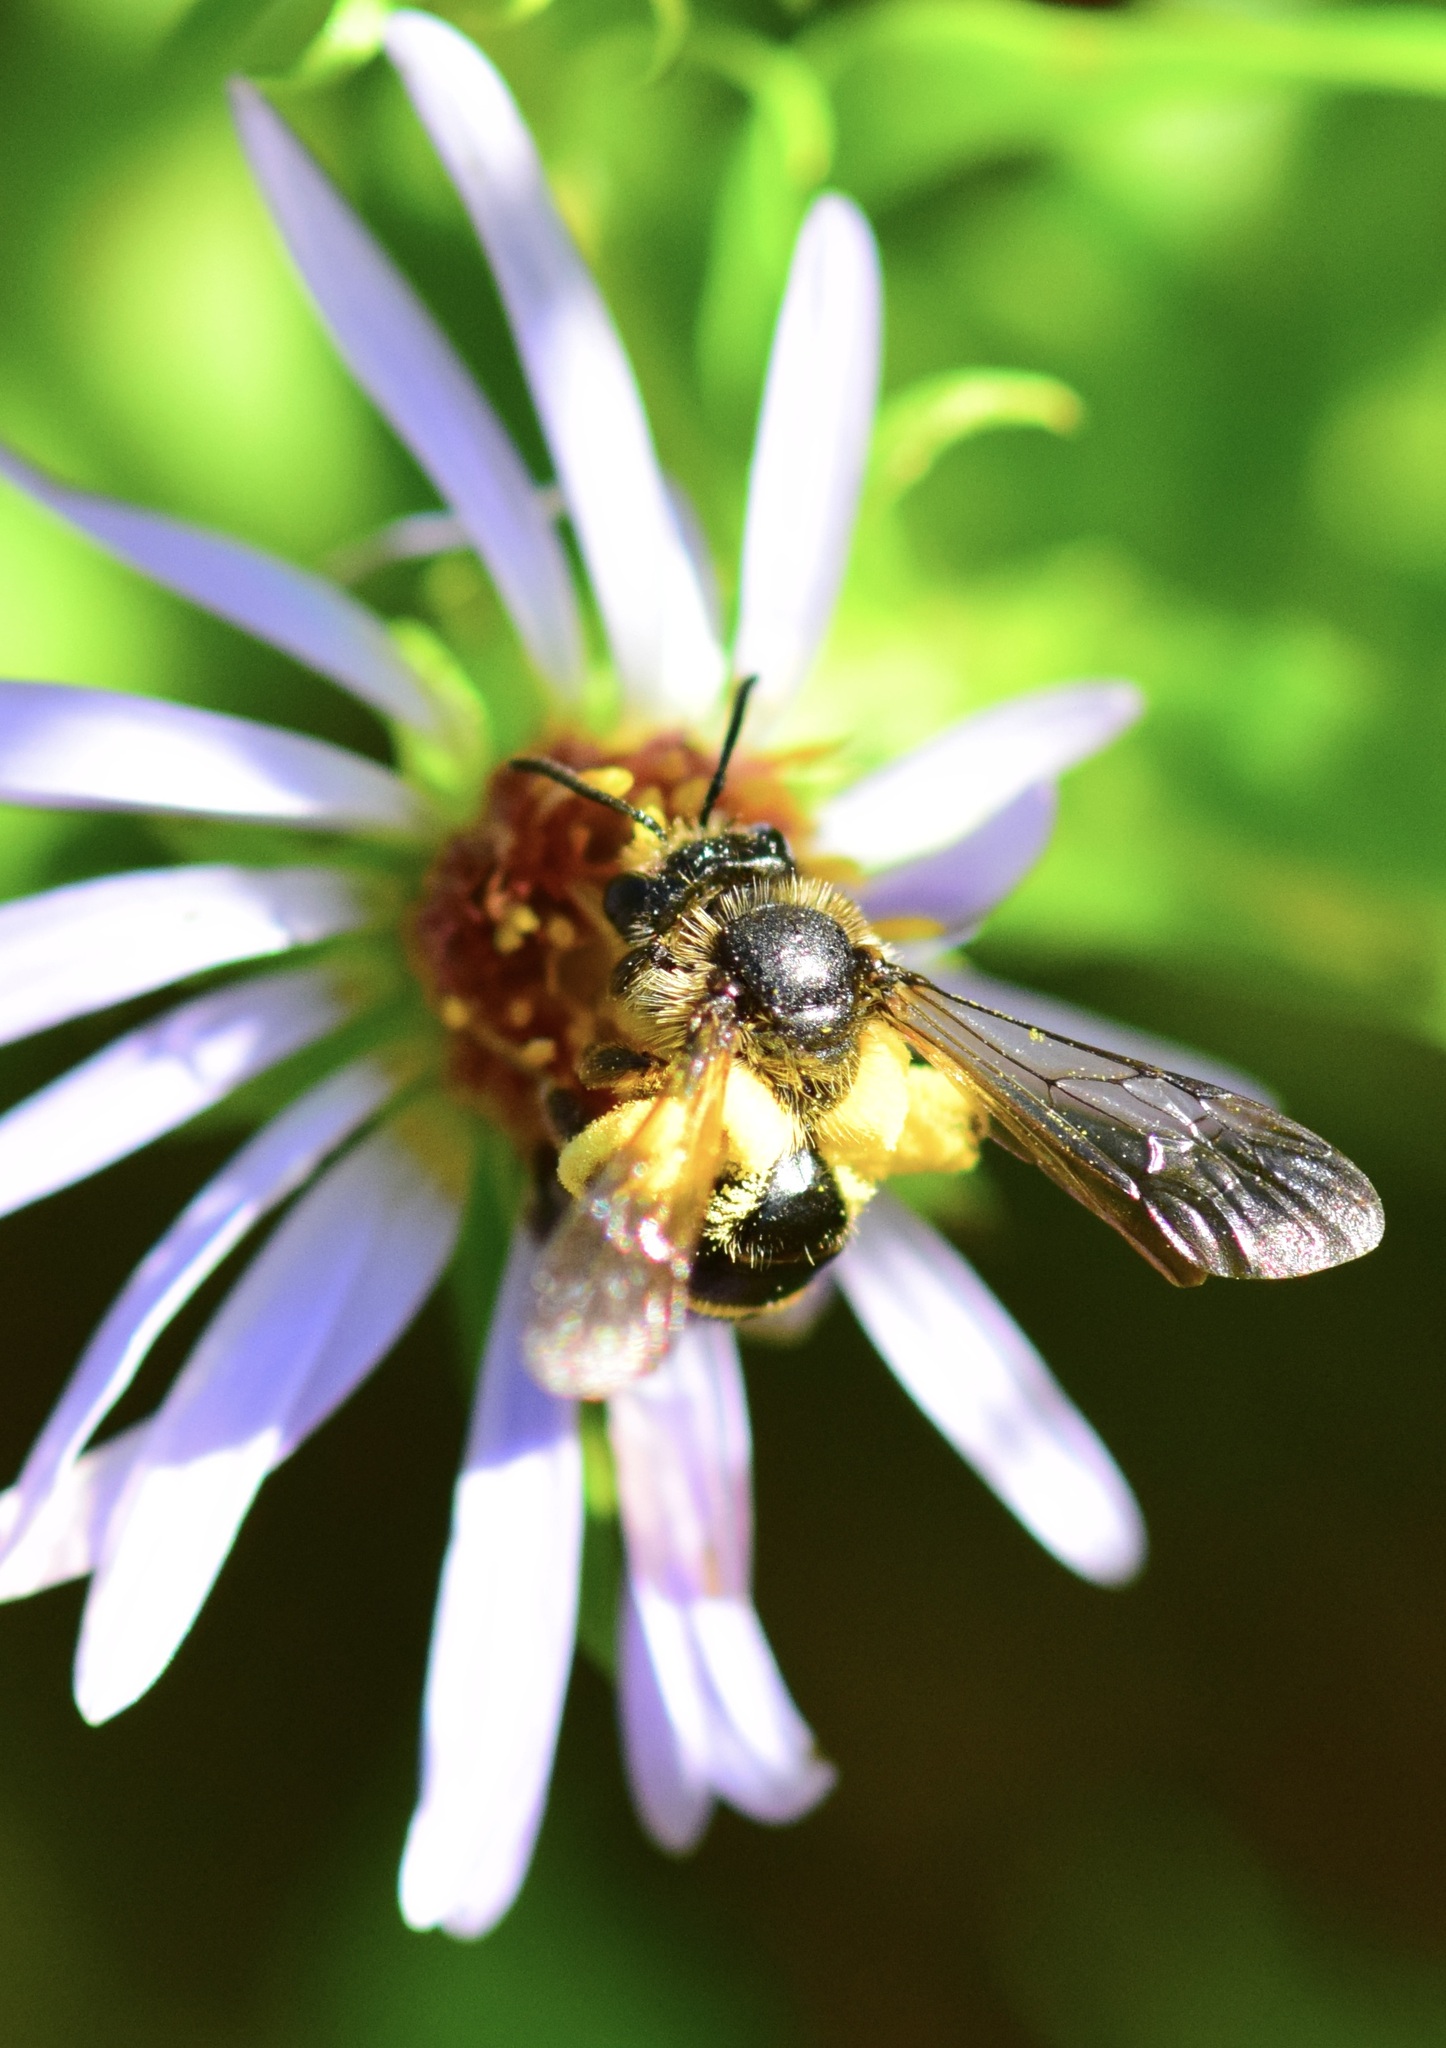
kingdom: Animalia
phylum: Arthropoda
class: Insecta
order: Hymenoptera
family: Andrenidae
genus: Andrena
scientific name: Andrena robervalensis
